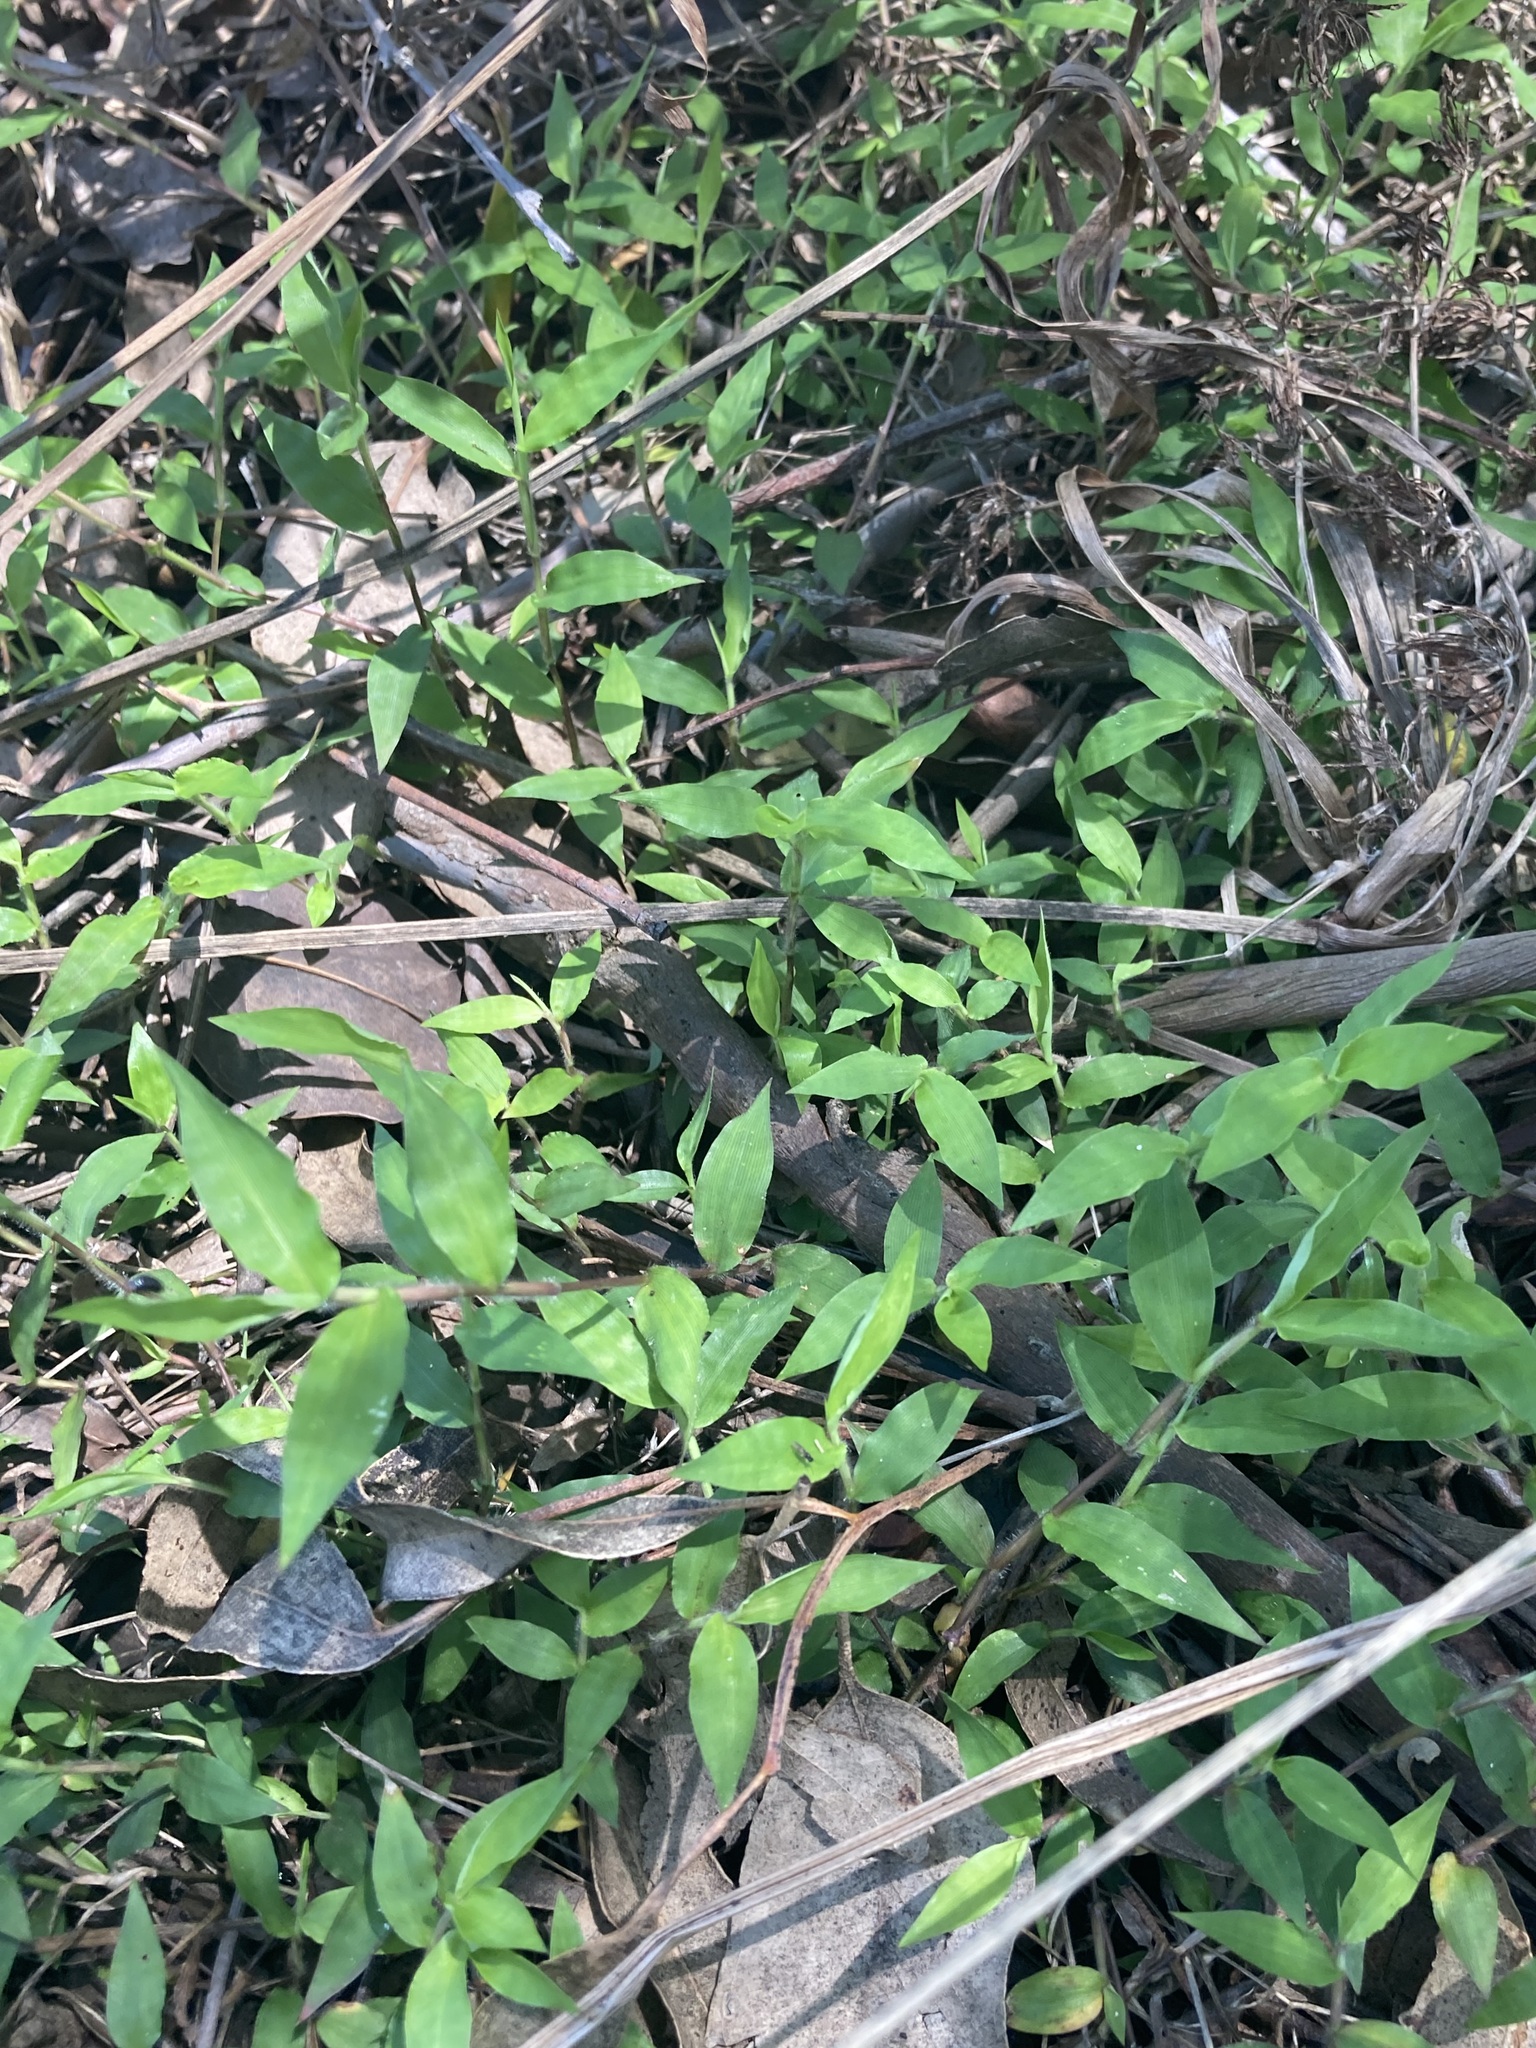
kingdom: Plantae
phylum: Tracheophyta
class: Liliopsida
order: Poales
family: Poaceae
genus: Oplismenus
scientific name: Oplismenus hirtellus
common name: Basketgrass
